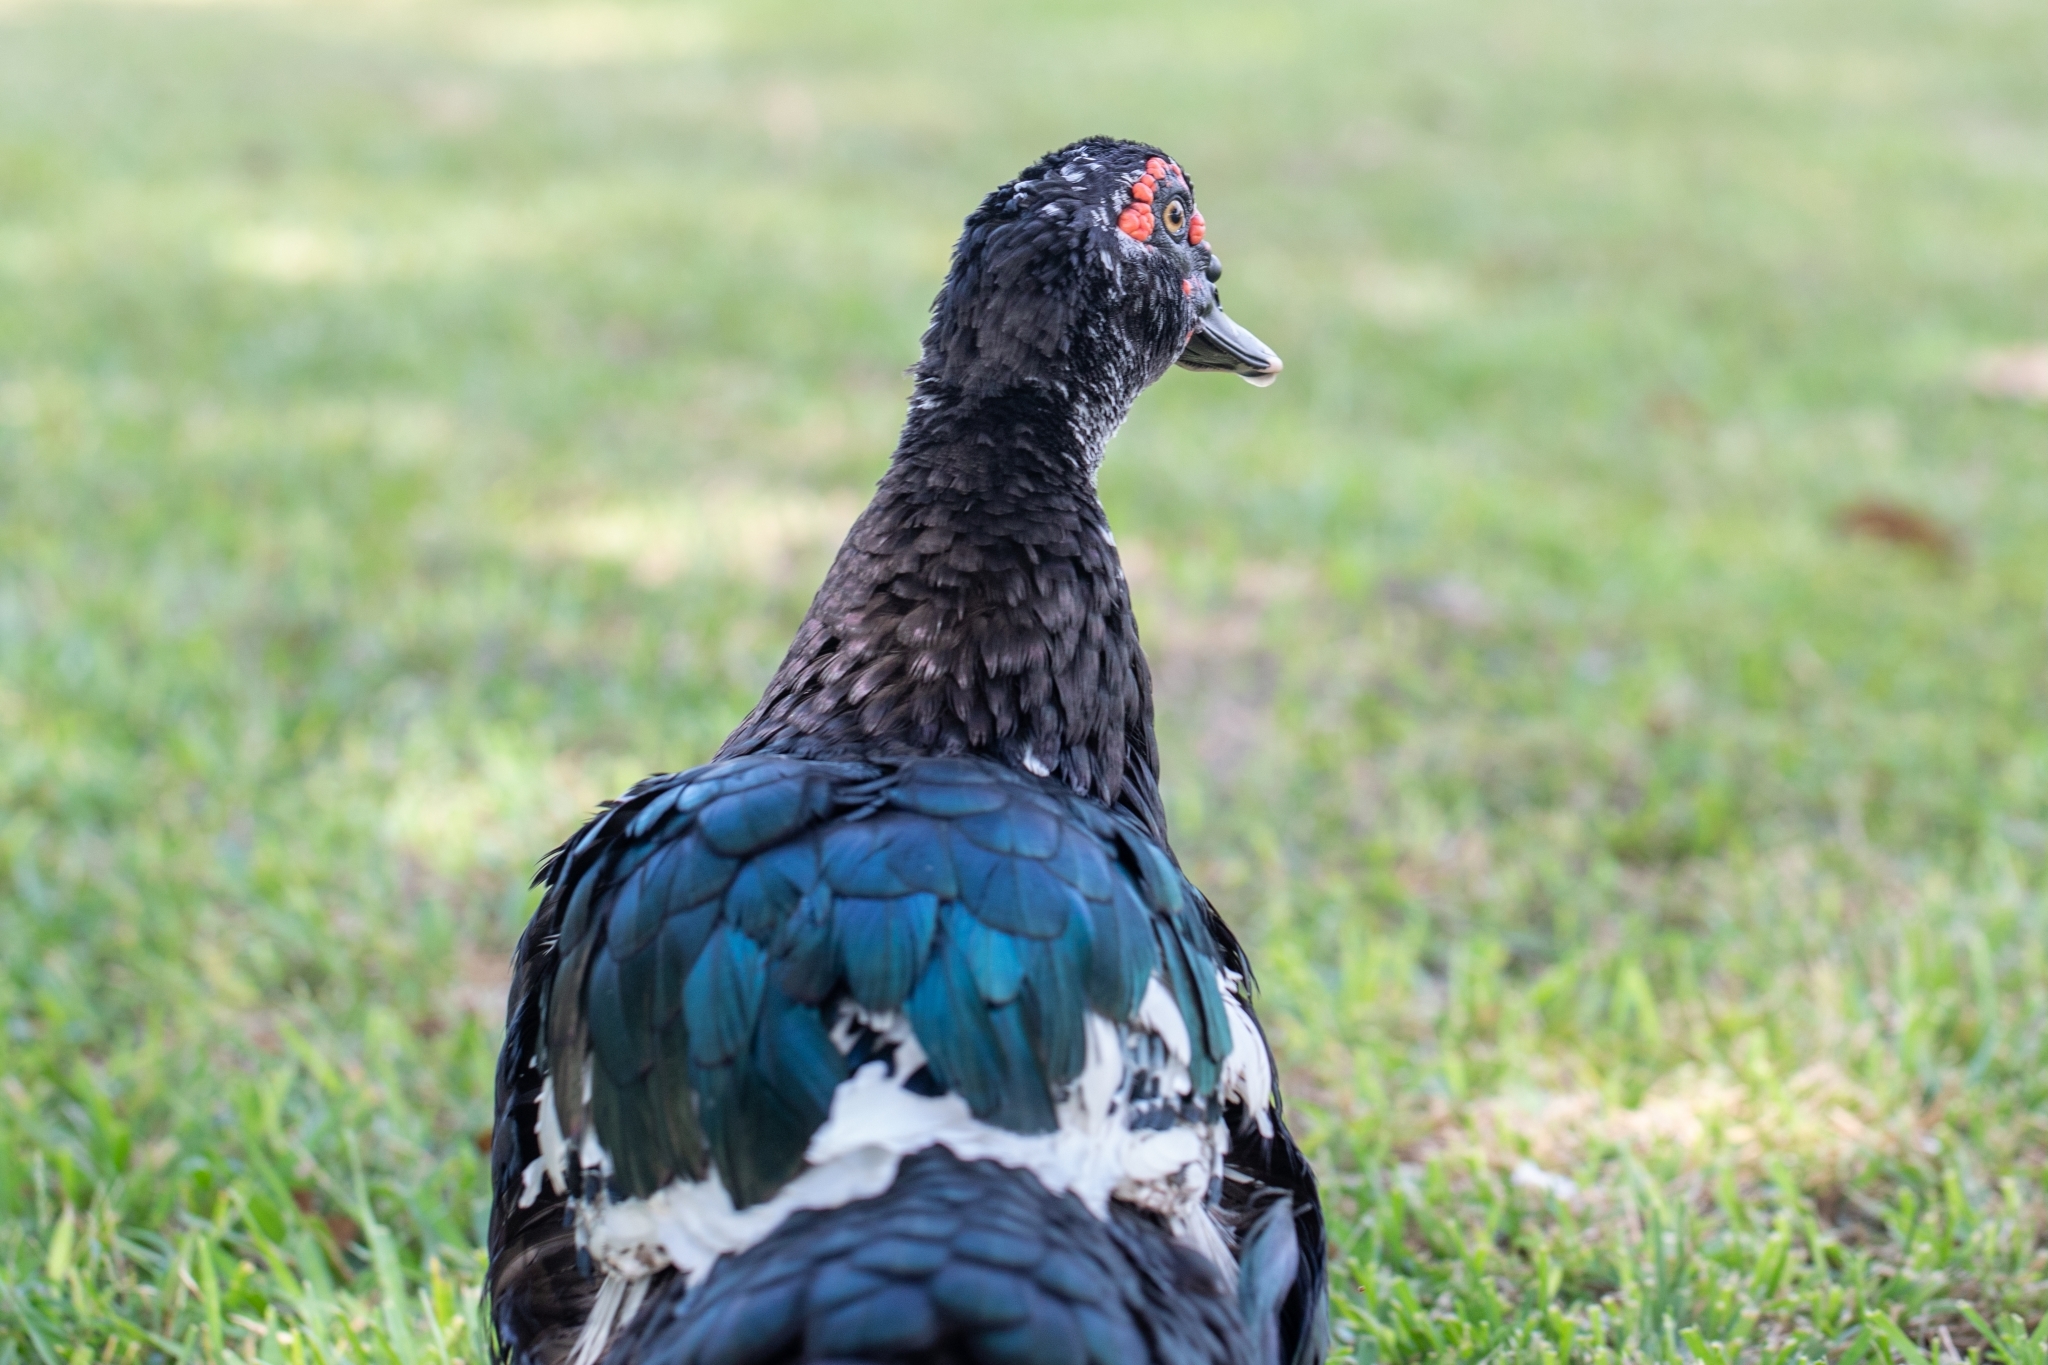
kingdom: Animalia
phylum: Chordata
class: Aves
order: Anseriformes
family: Anatidae
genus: Cairina
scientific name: Cairina moschata
